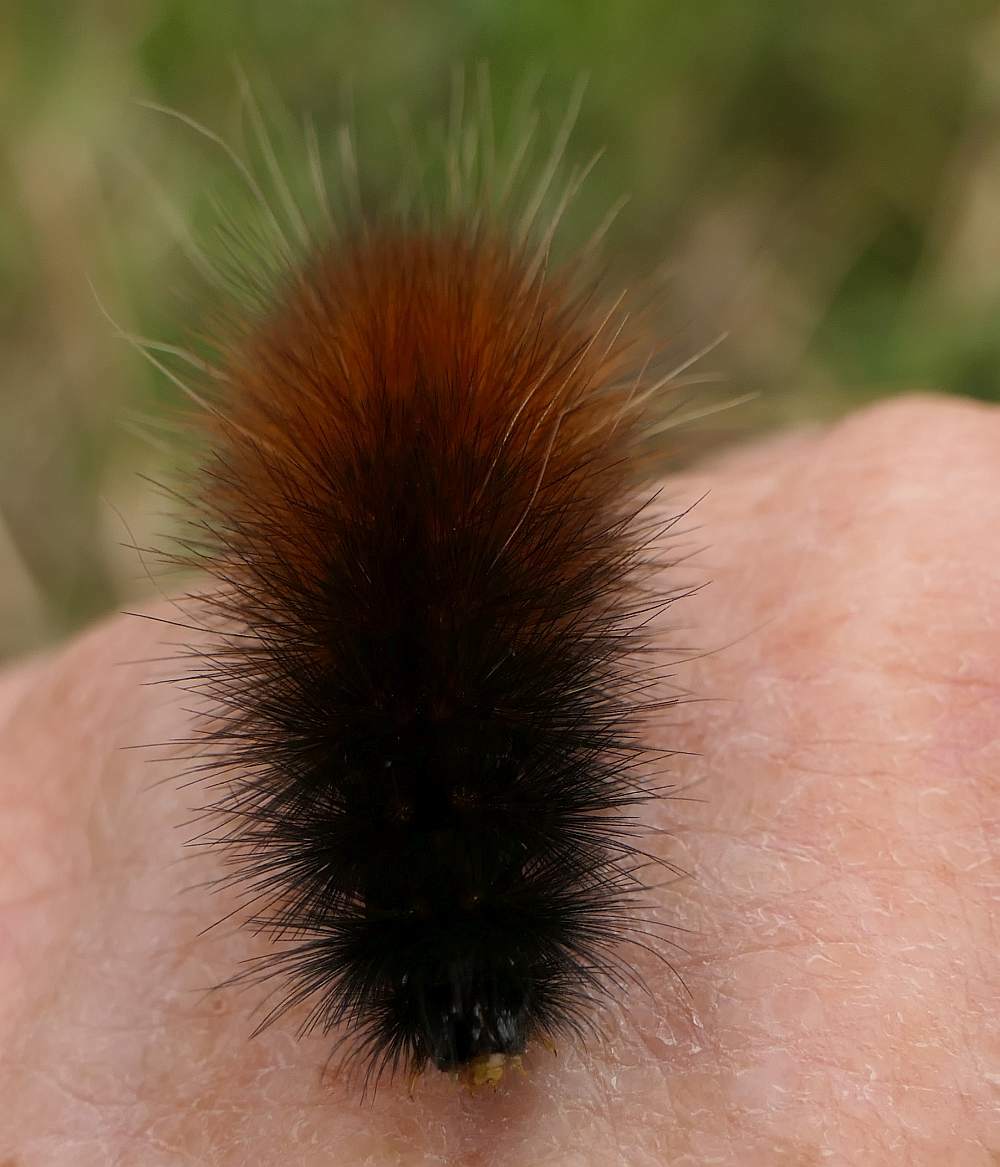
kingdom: Animalia
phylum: Arthropoda
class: Insecta
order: Lepidoptera
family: Erebidae
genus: Spilosoma
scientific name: Spilosoma virginica
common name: Virginia tiger moth
